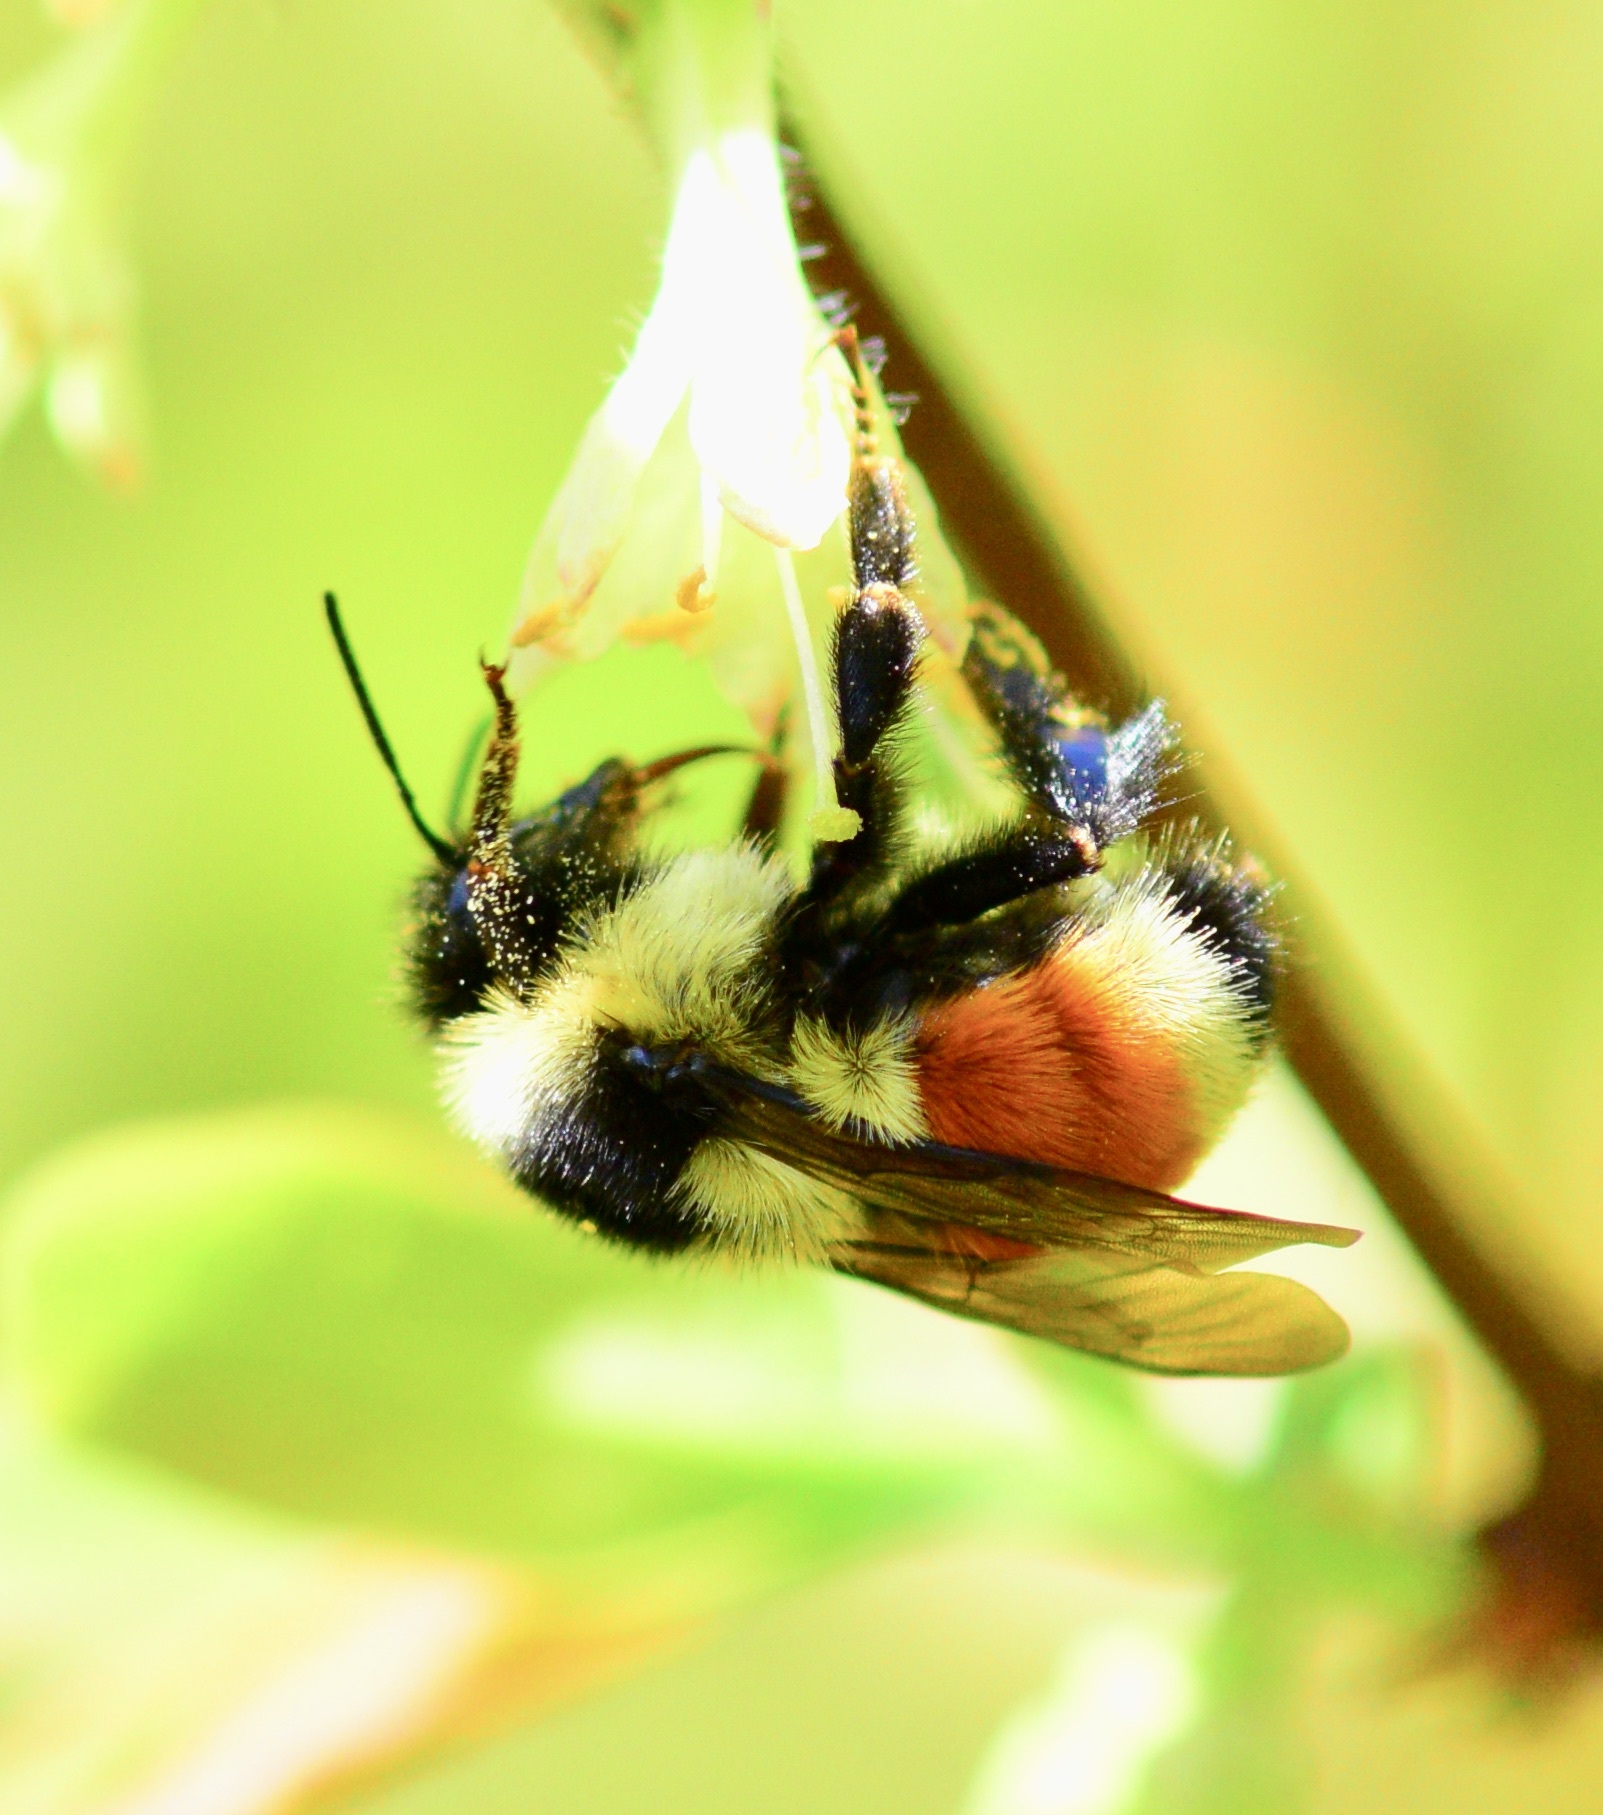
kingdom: Animalia
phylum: Arthropoda
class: Insecta
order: Hymenoptera
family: Apidae
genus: Bombus
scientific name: Bombus ternarius
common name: Tri-colored bumble bee
